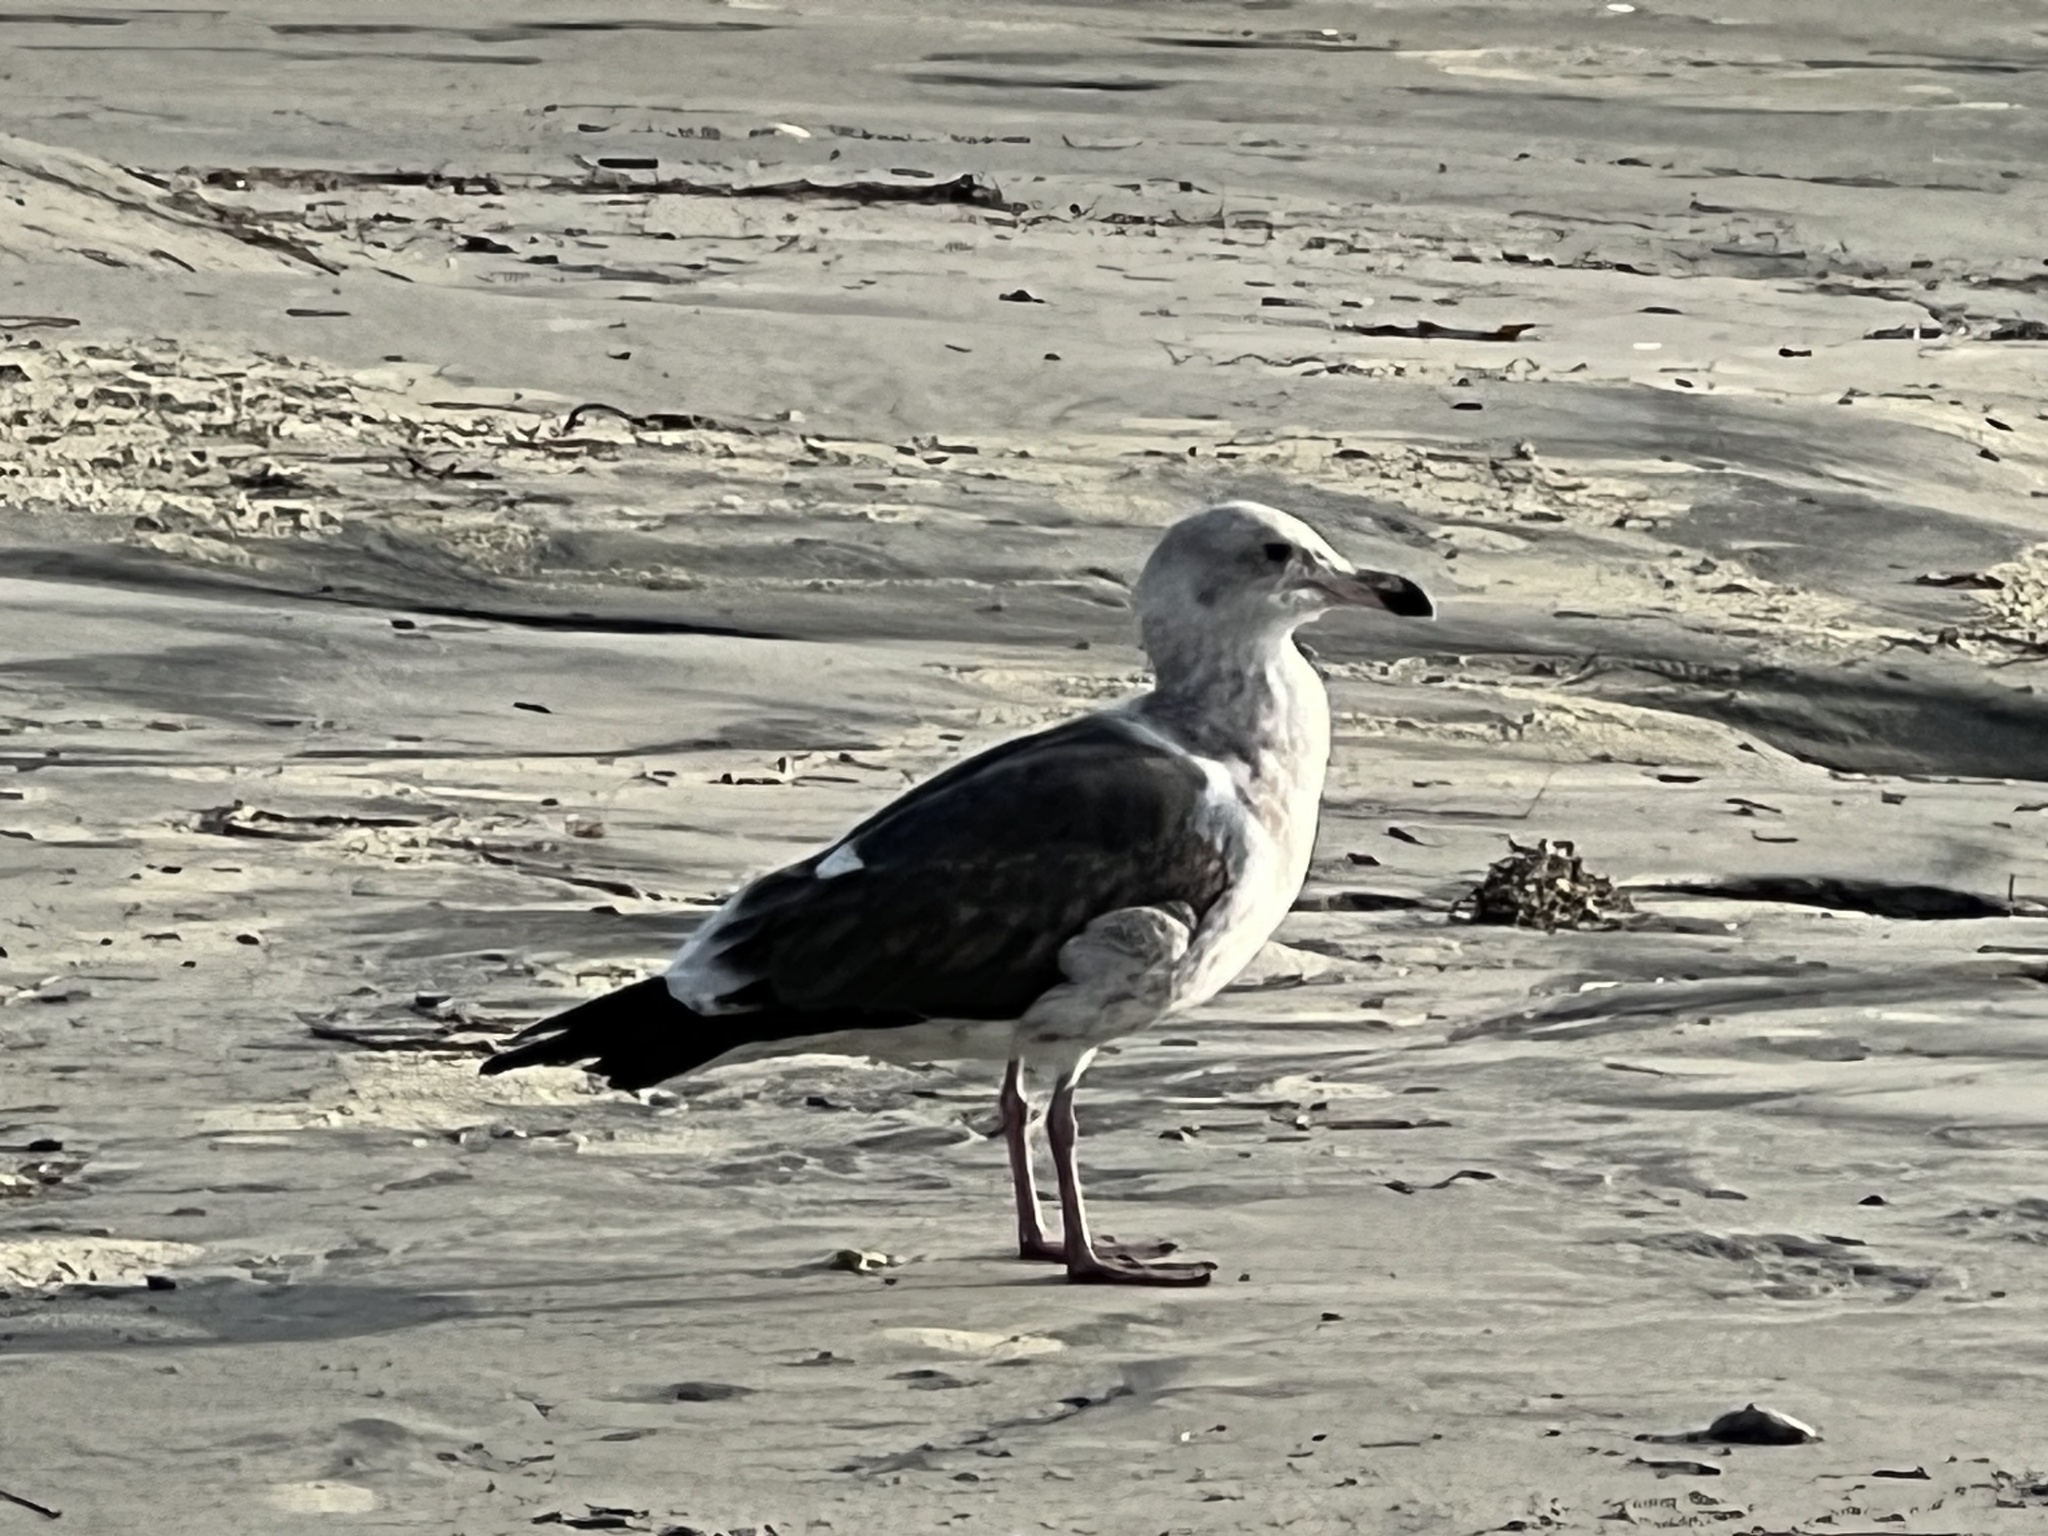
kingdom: Animalia
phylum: Chordata
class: Aves
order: Charadriiformes
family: Laridae
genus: Larus
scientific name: Larus occidentalis
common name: Western gull
